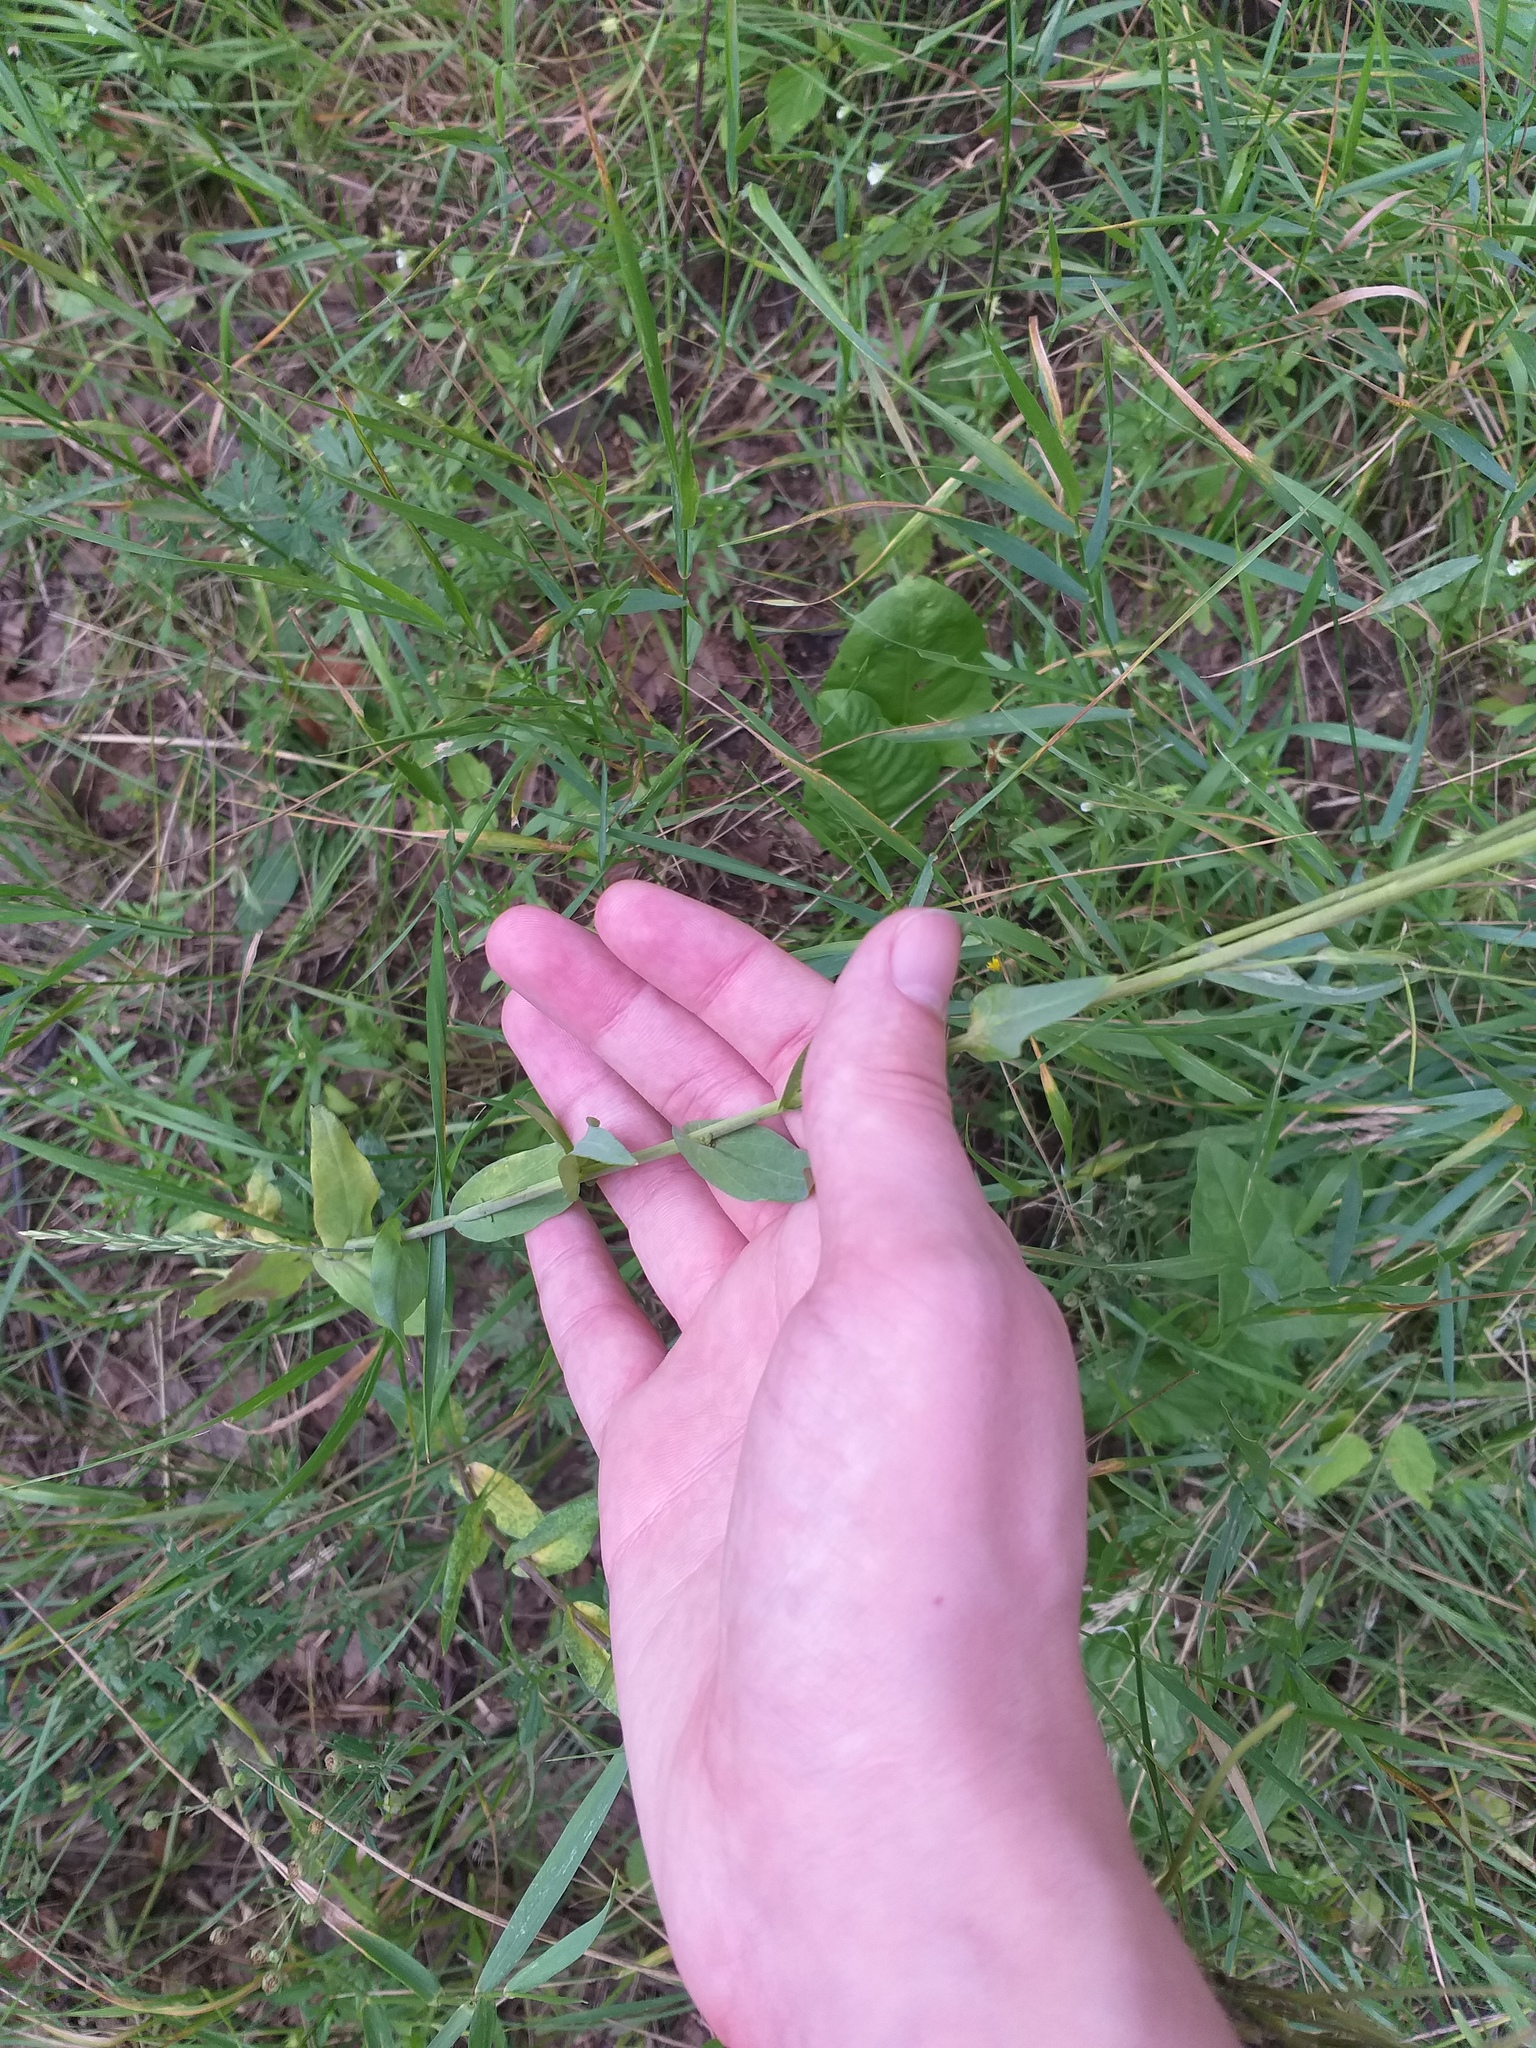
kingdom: Plantae
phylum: Tracheophyta
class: Magnoliopsida
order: Brassicales
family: Brassicaceae
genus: Turritis
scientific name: Turritis glabra
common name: Tower rockcress
